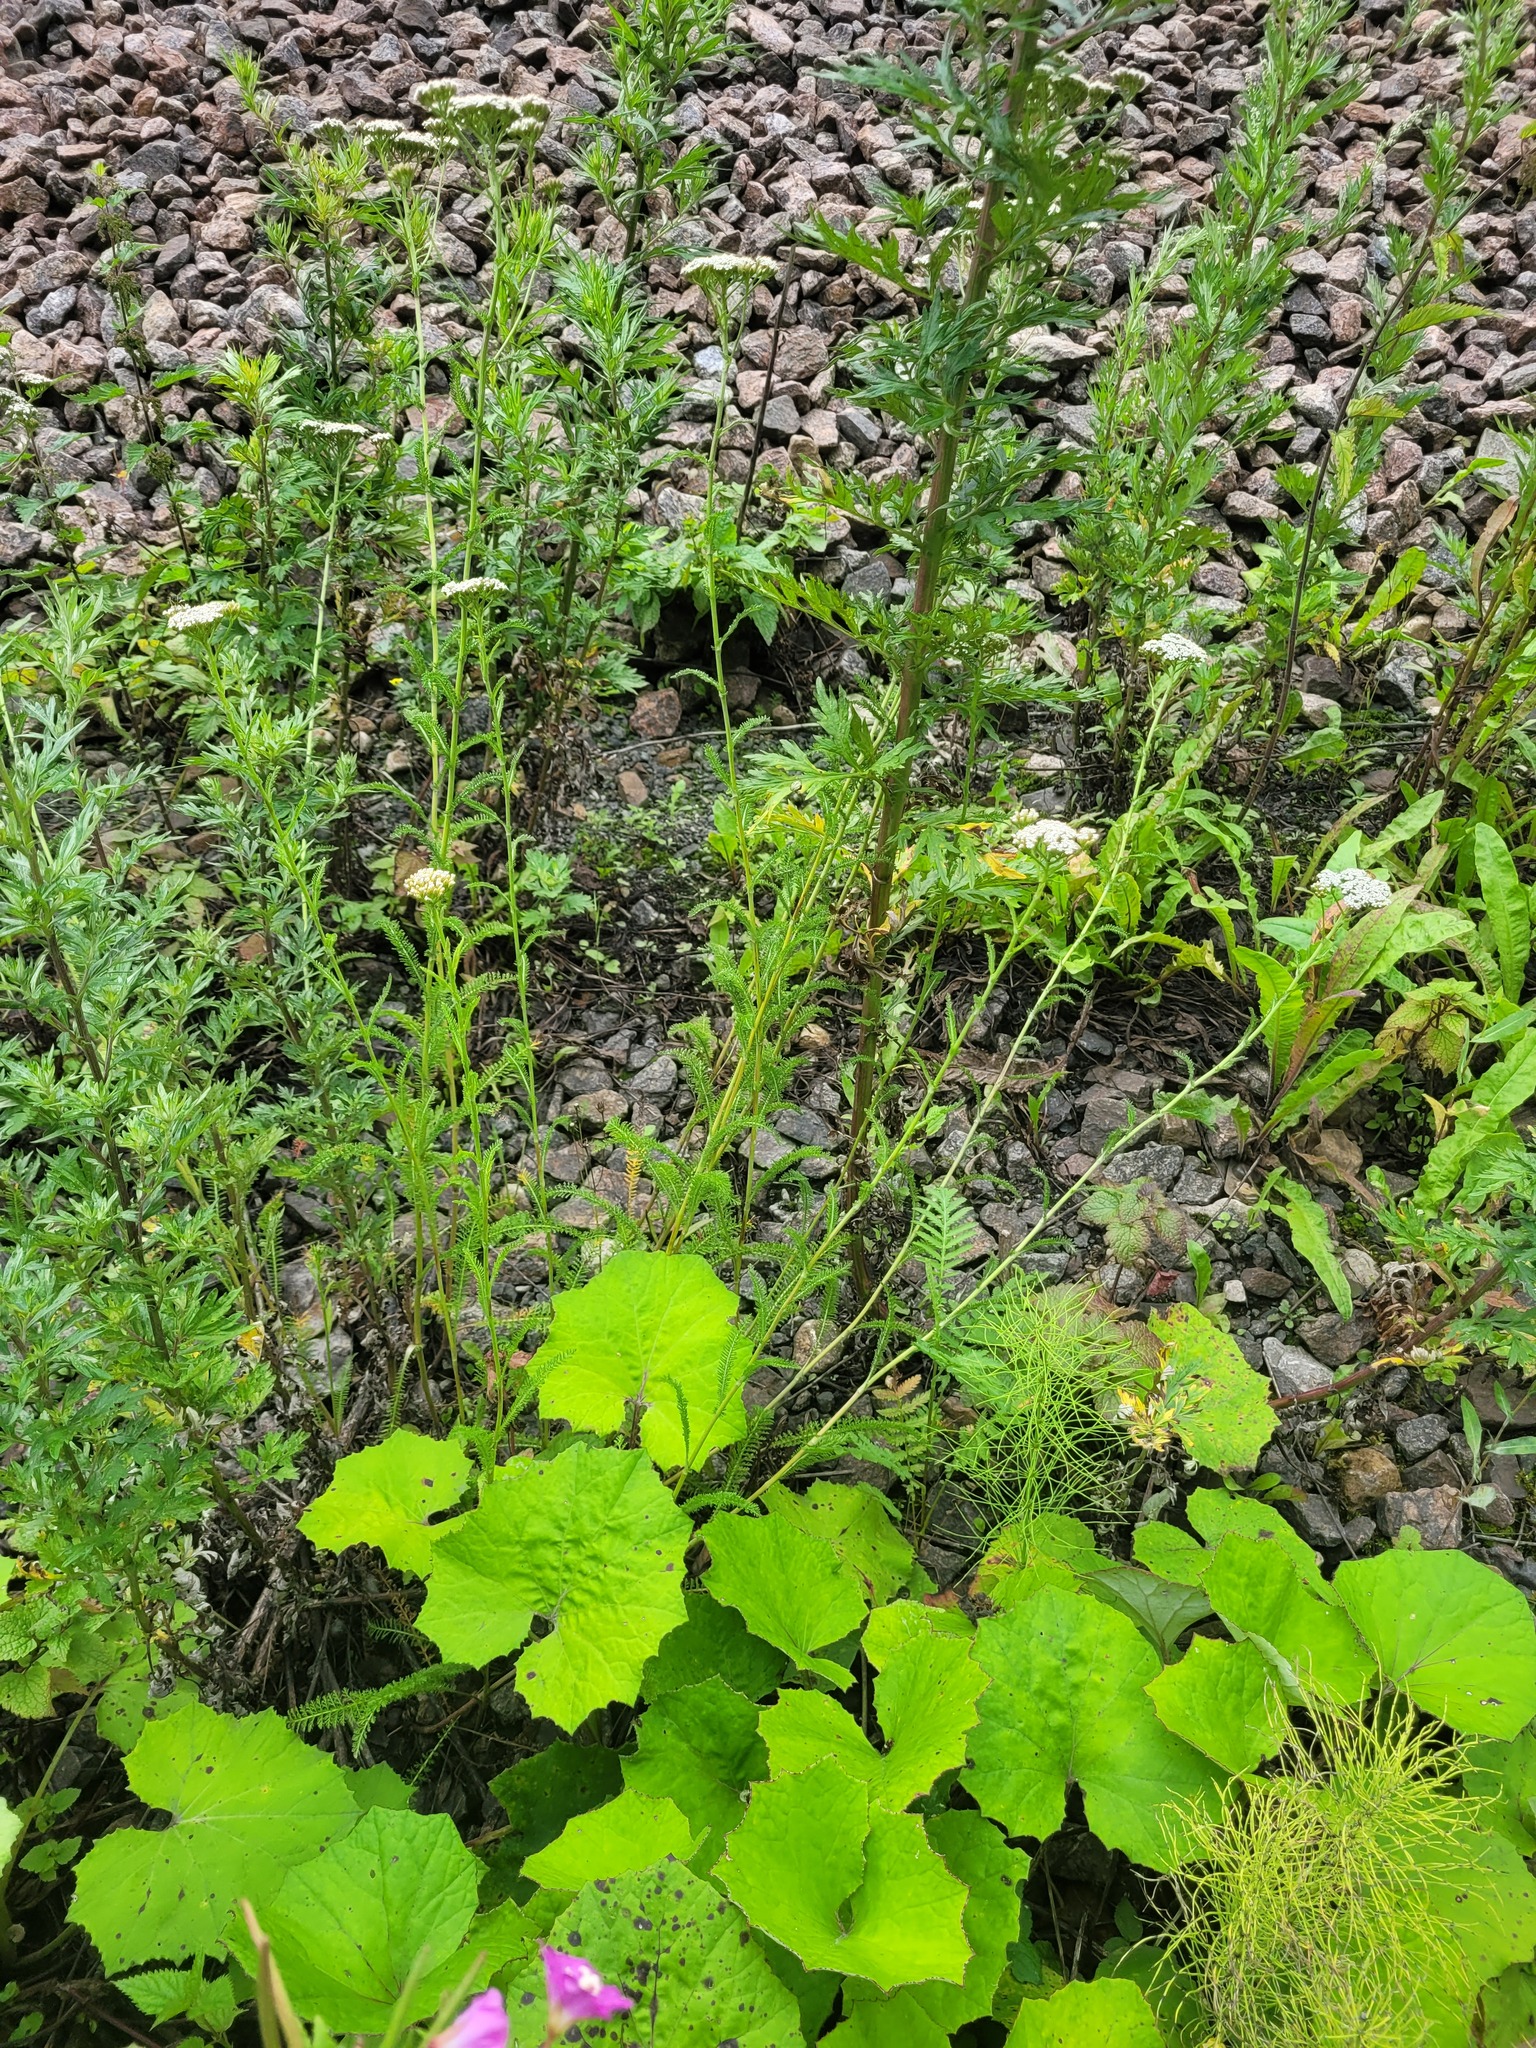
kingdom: Plantae
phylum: Tracheophyta
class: Magnoliopsida
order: Asterales
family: Asteraceae
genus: Achillea
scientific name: Achillea millefolium
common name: Yarrow
